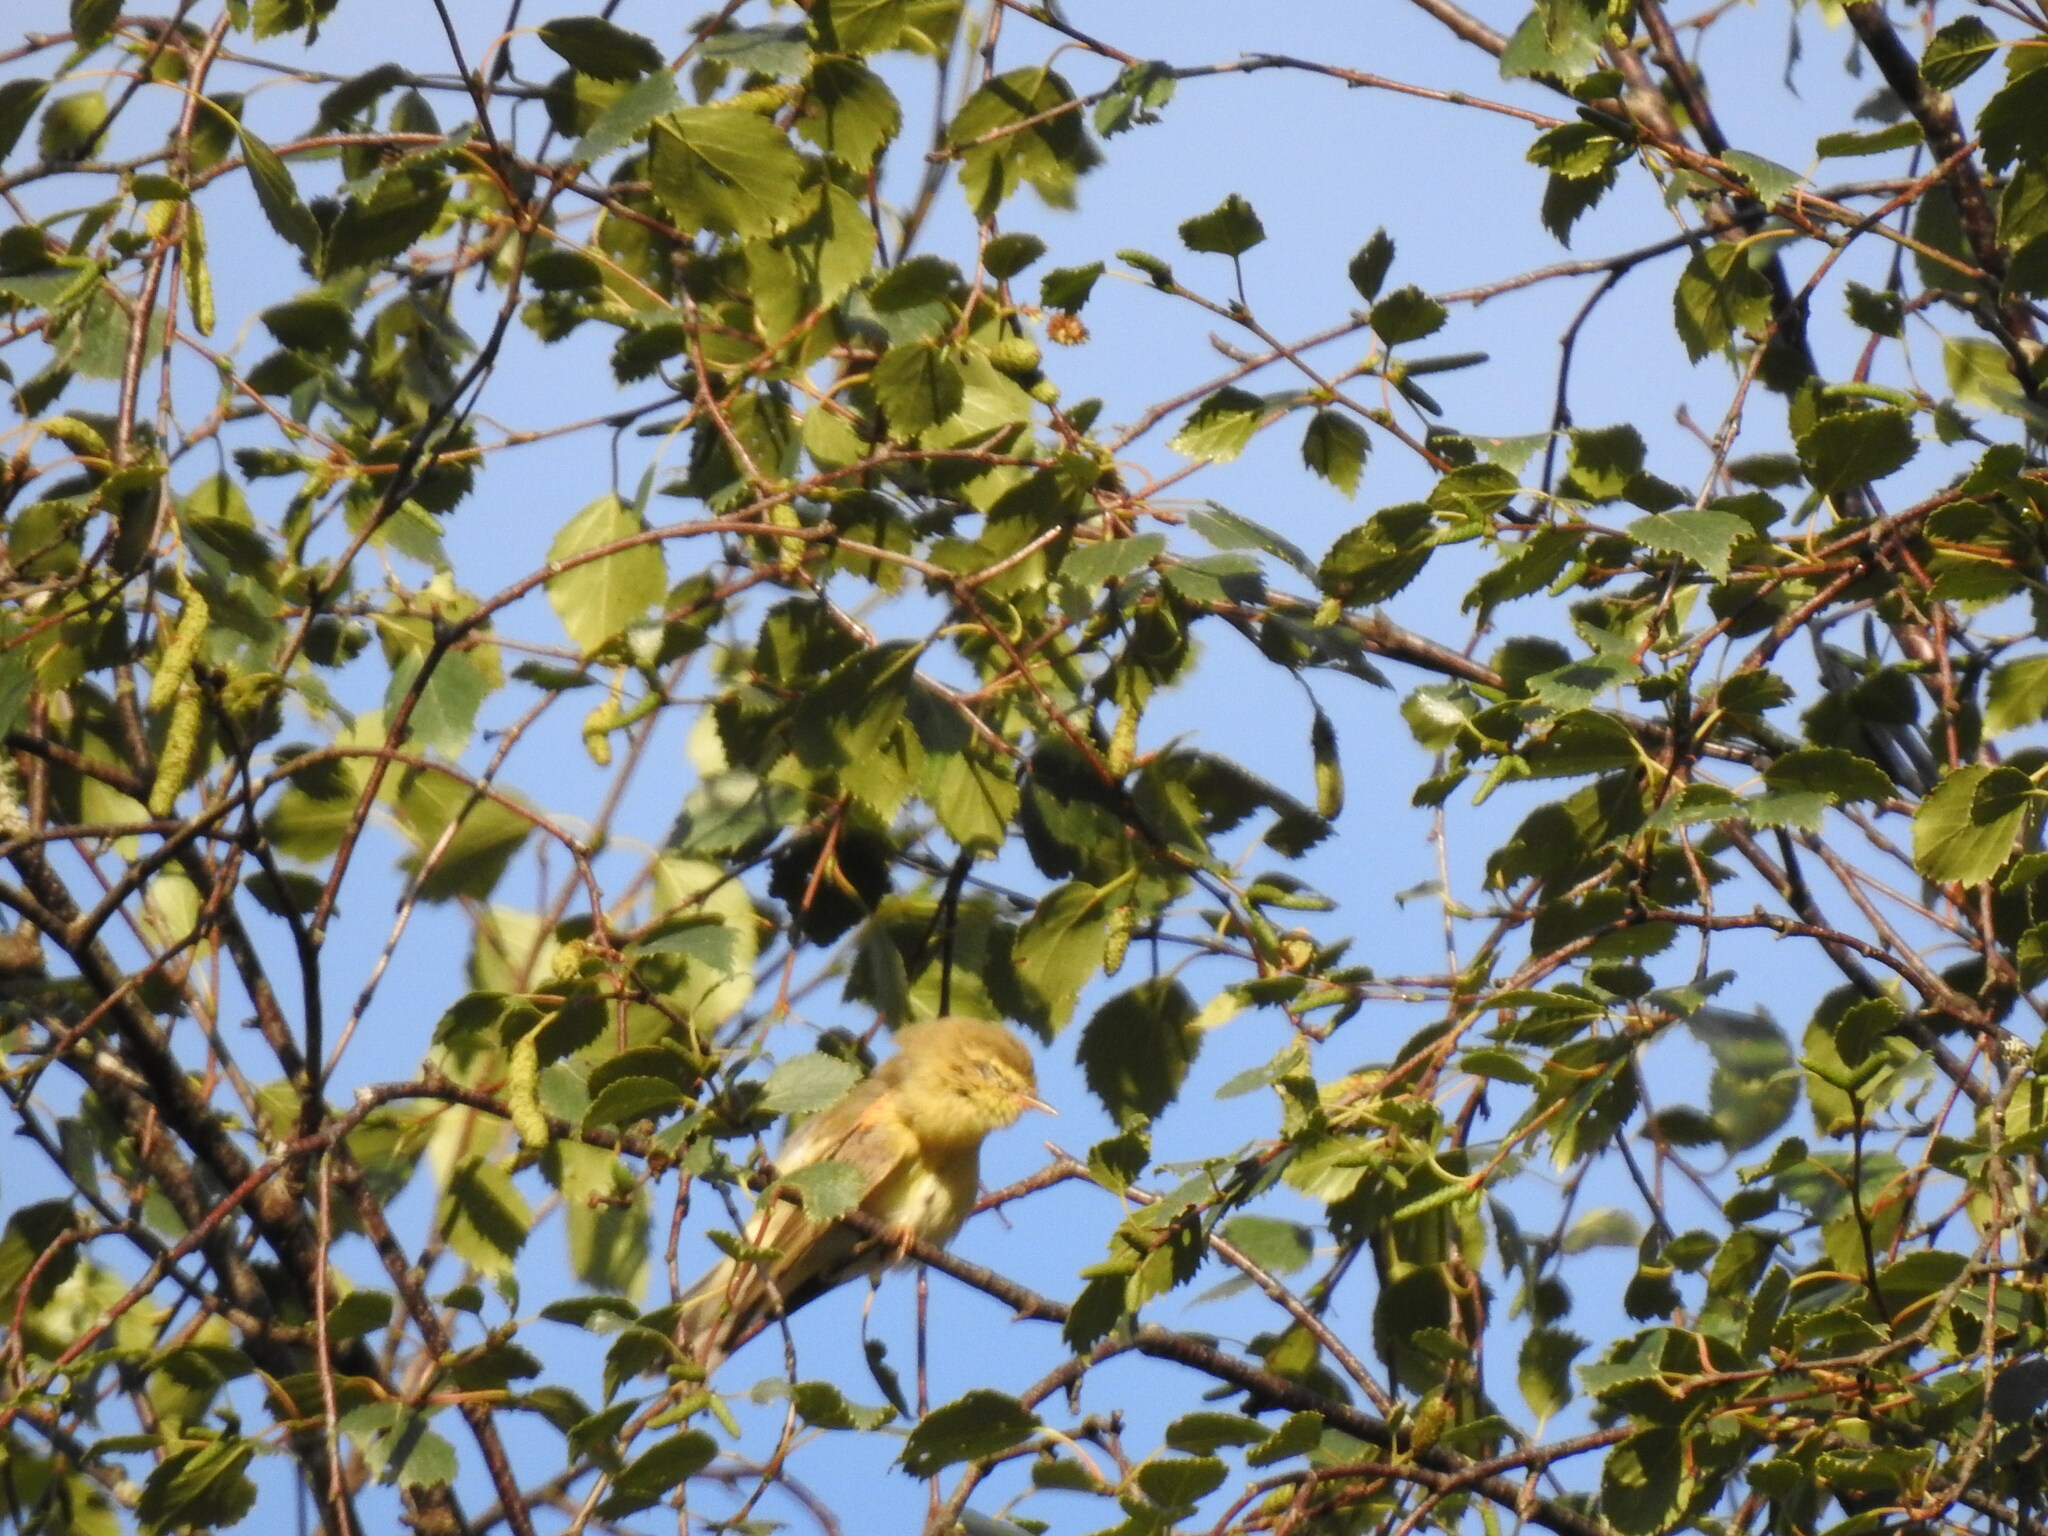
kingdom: Animalia
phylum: Chordata
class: Aves
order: Passeriformes
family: Phylloscopidae
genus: Phylloscopus
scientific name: Phylloscopus trochilus
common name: Willow warbler
